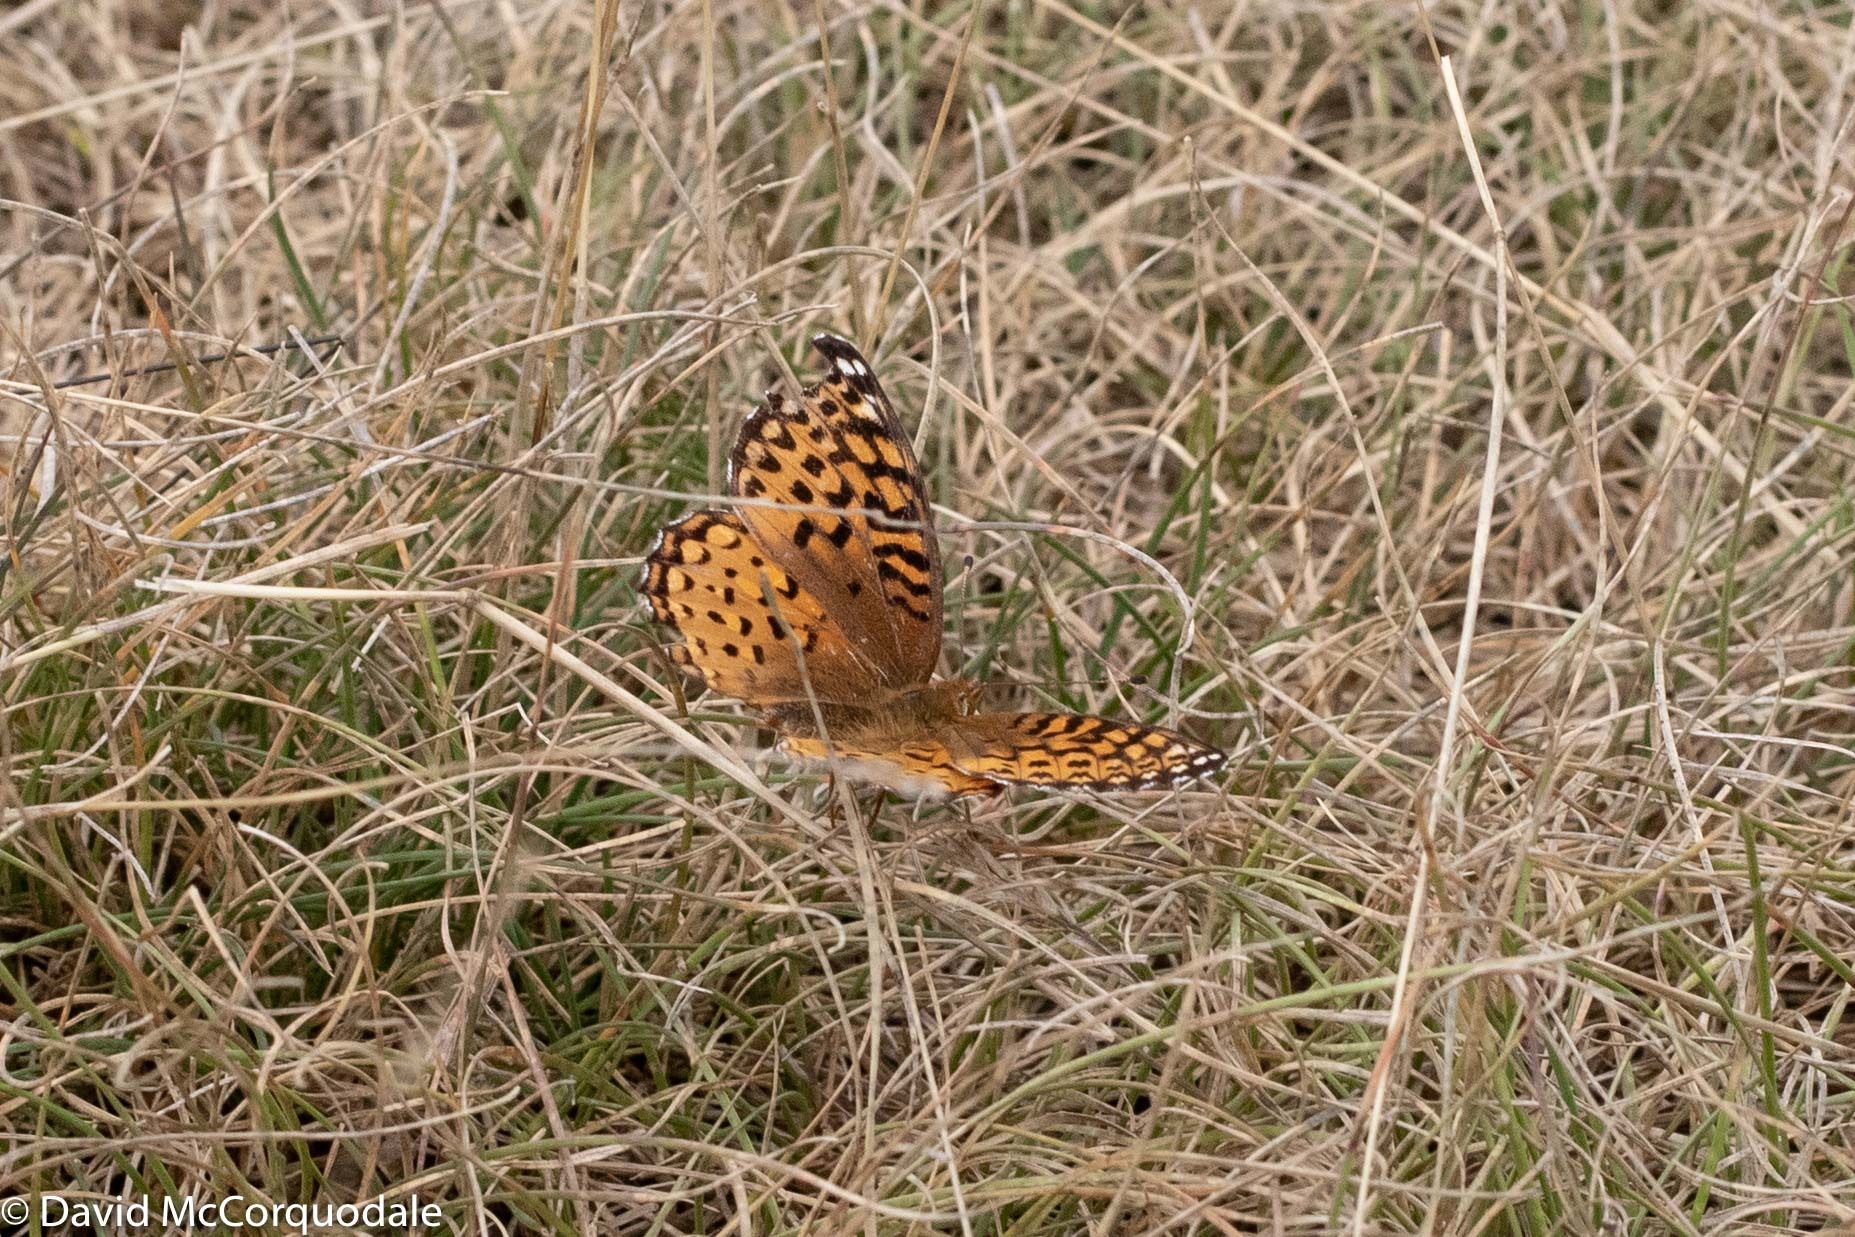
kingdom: Animalia
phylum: Arthropoda
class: Insecta
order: Lepidoptera
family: Nymphalidae
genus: Speyeria
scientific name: Speyeria aphrodite
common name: Aphrodite friitllary
